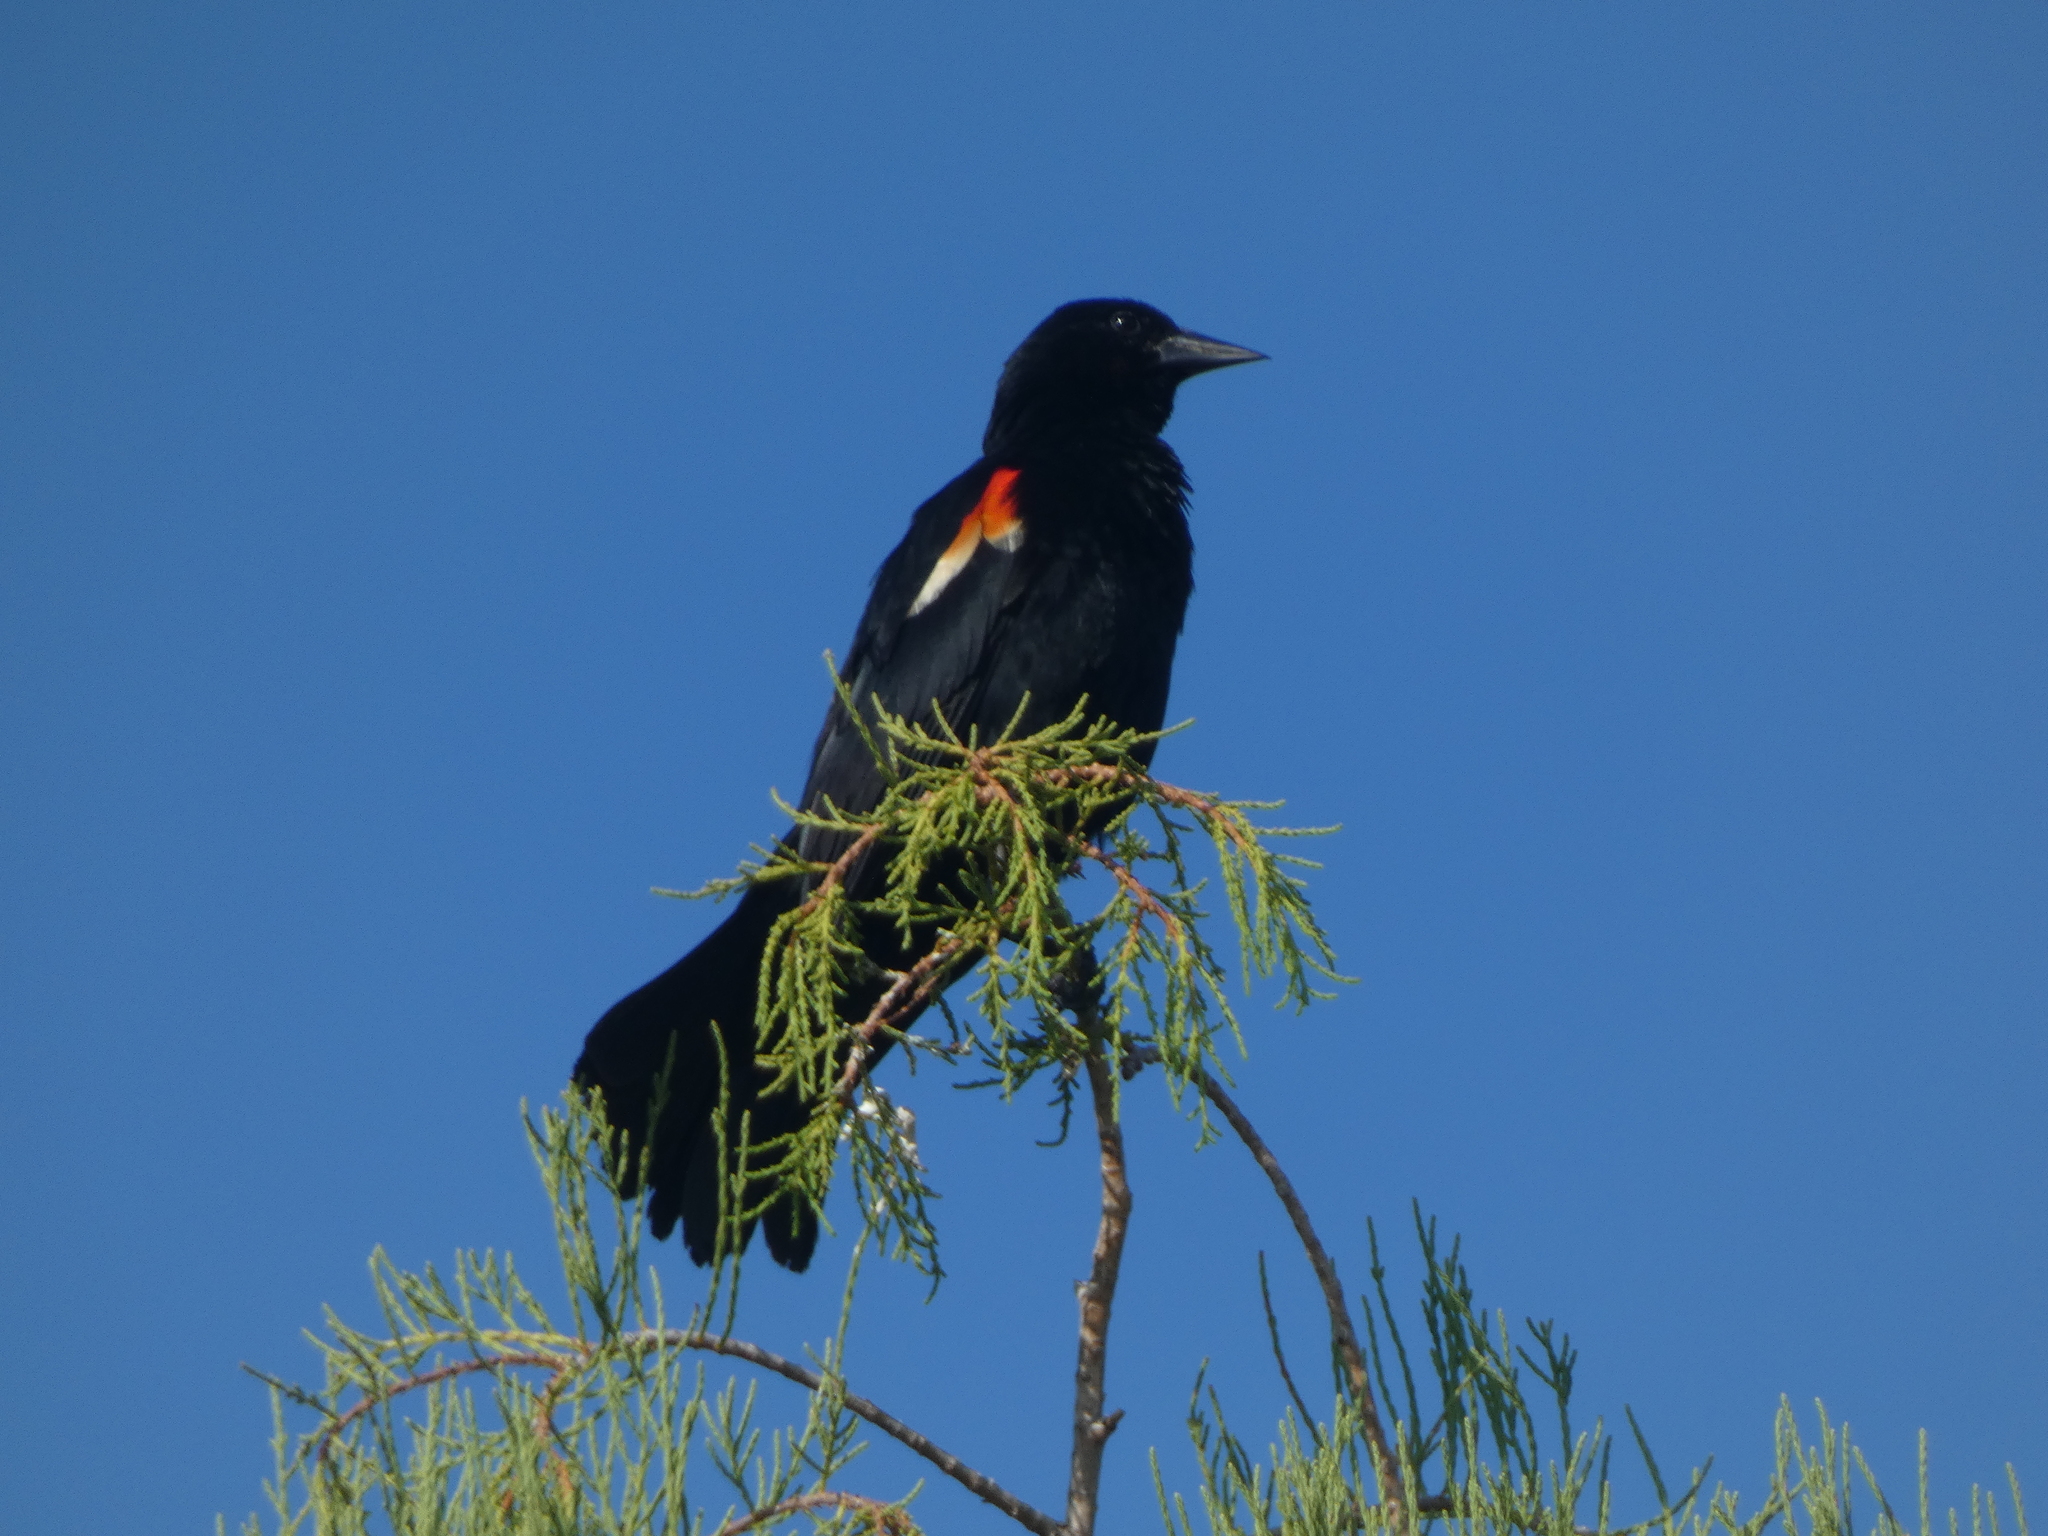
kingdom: Animalia
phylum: Chordata
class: Aves
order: Passeriformes
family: Icteridae
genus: Agelaius
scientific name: Agelaius phoeniceus
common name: Red-winged blackbird
